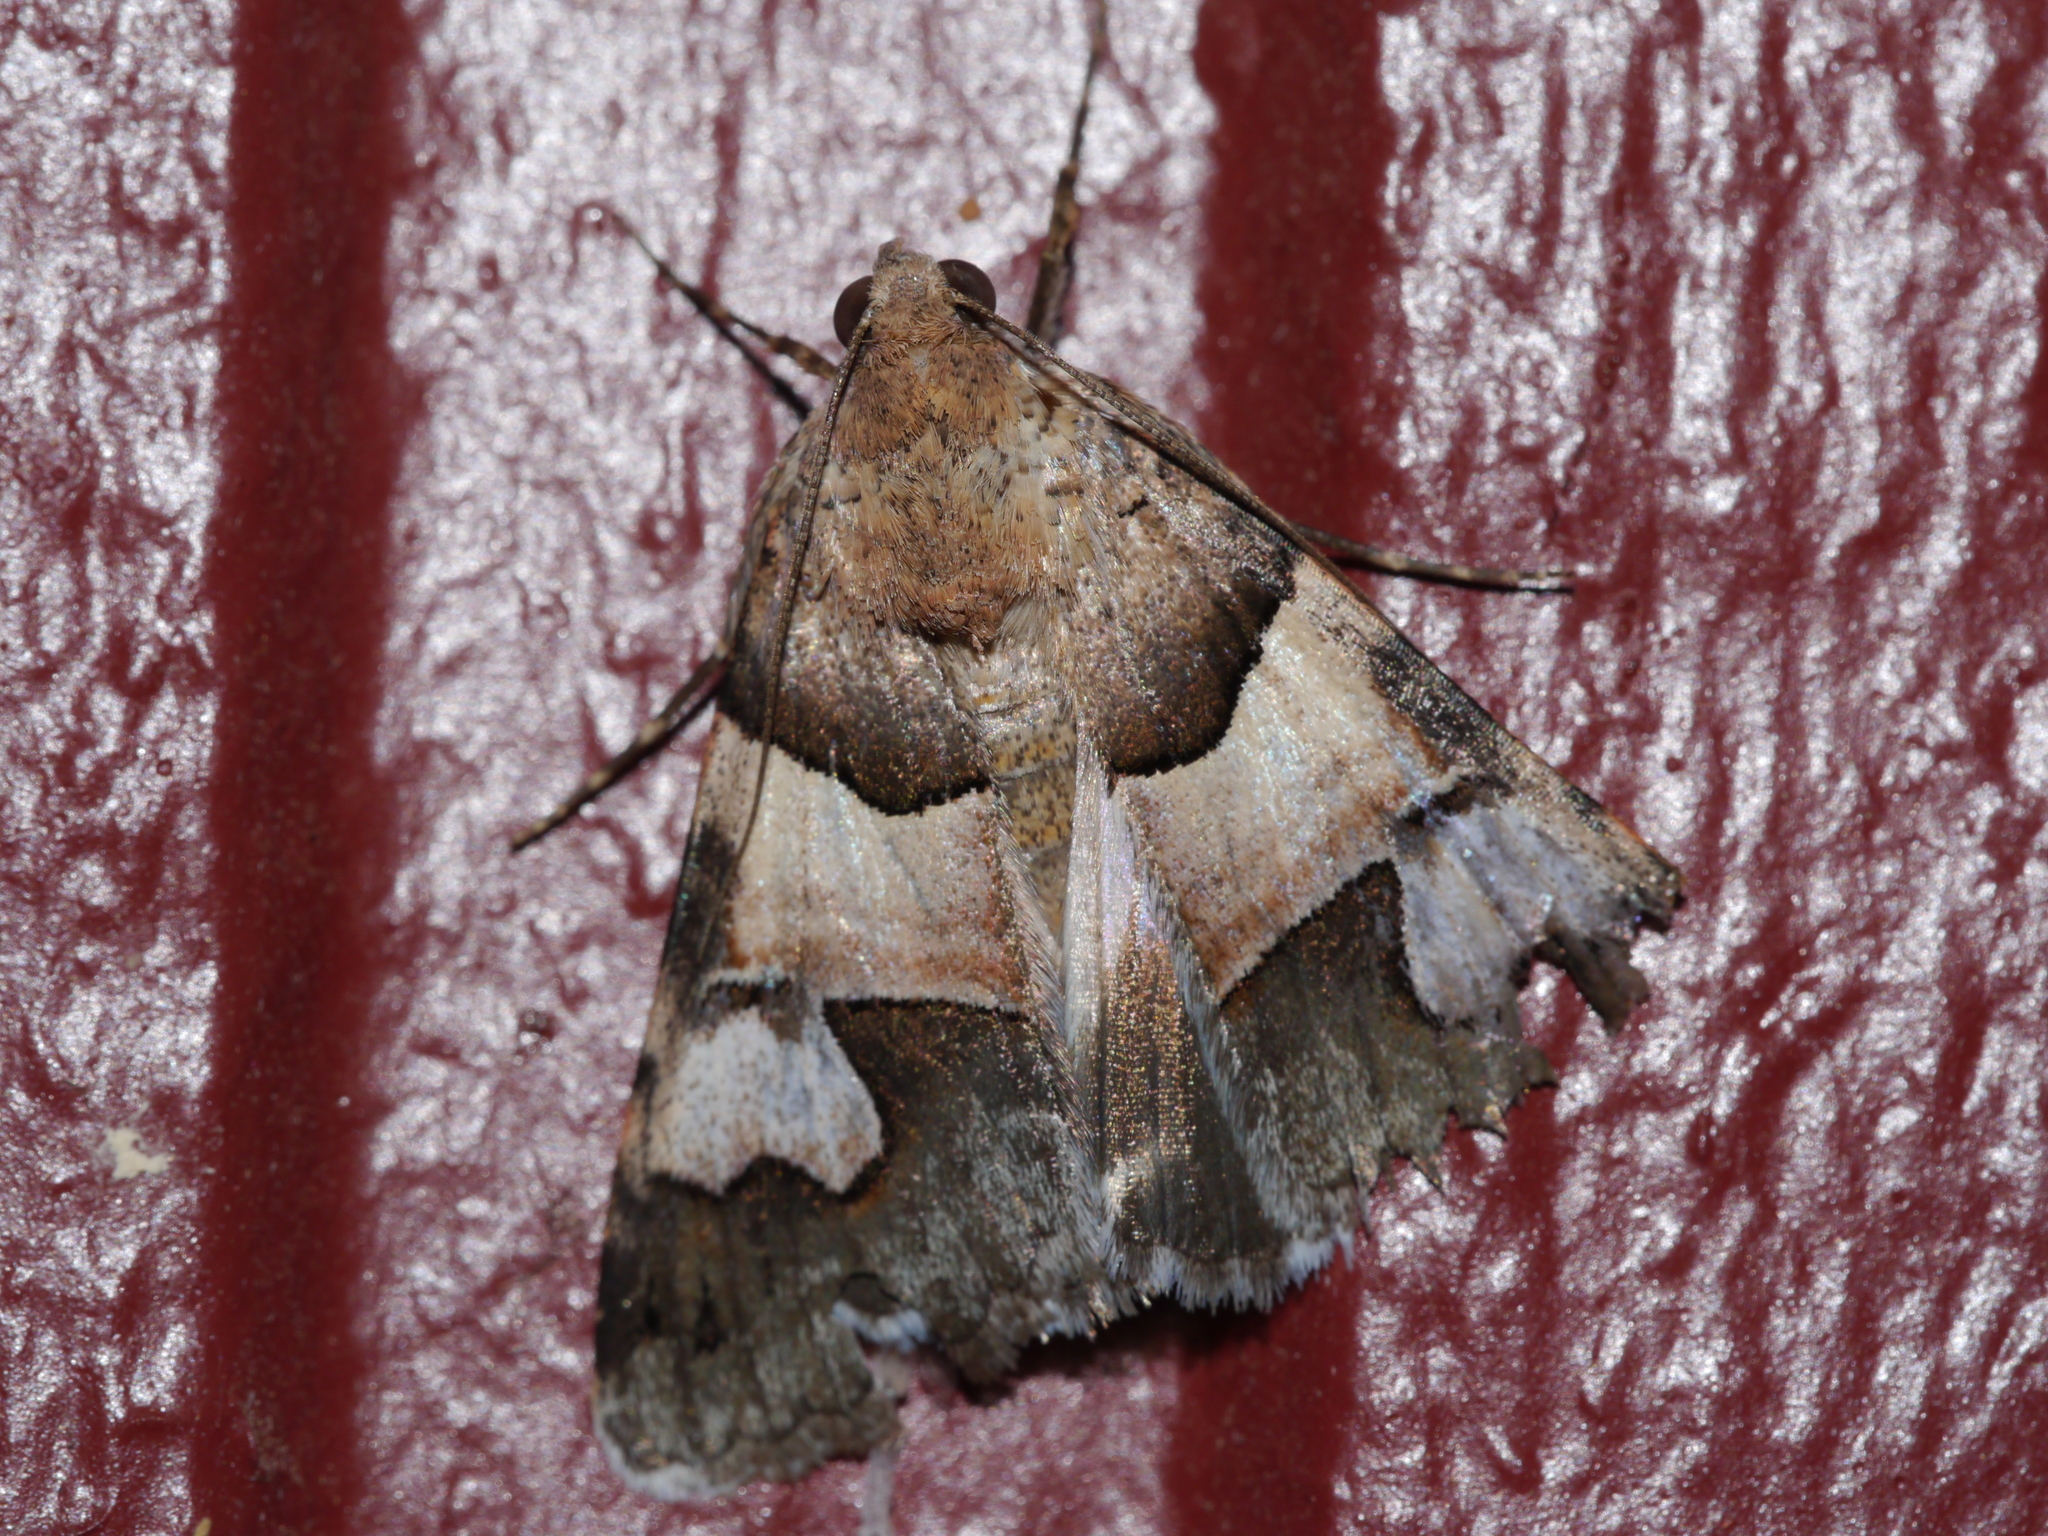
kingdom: Animalia
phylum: Arthropoda
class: Insecta
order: Lepidoptera
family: Erebidae
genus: Drasteria
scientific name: Drasteria pallescens
